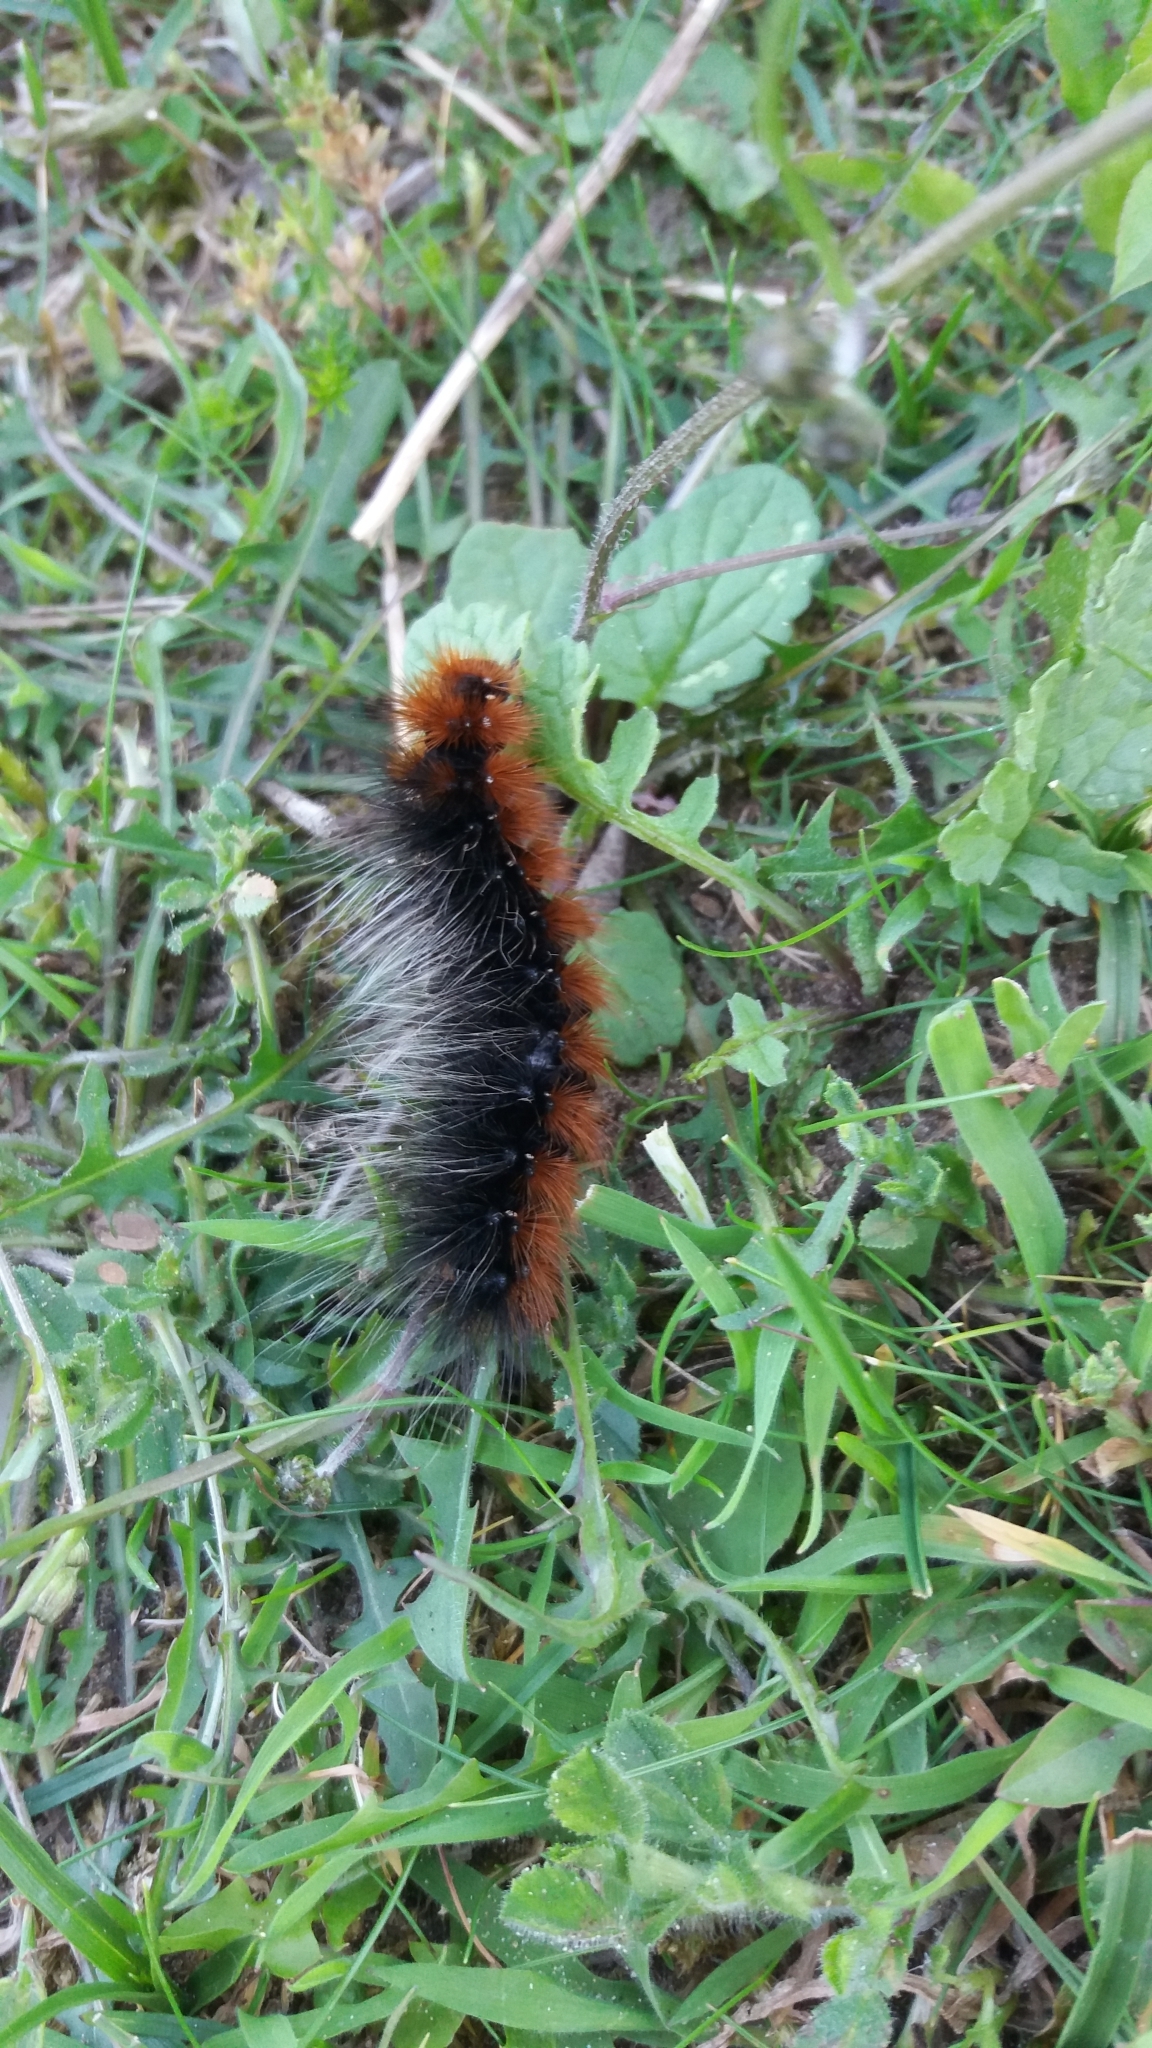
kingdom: Animalia
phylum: Arthropoda
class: Insecta
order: Lepidoptera
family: Erebidae
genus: Arctia
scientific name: Arctia caja
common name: Garden tiger
